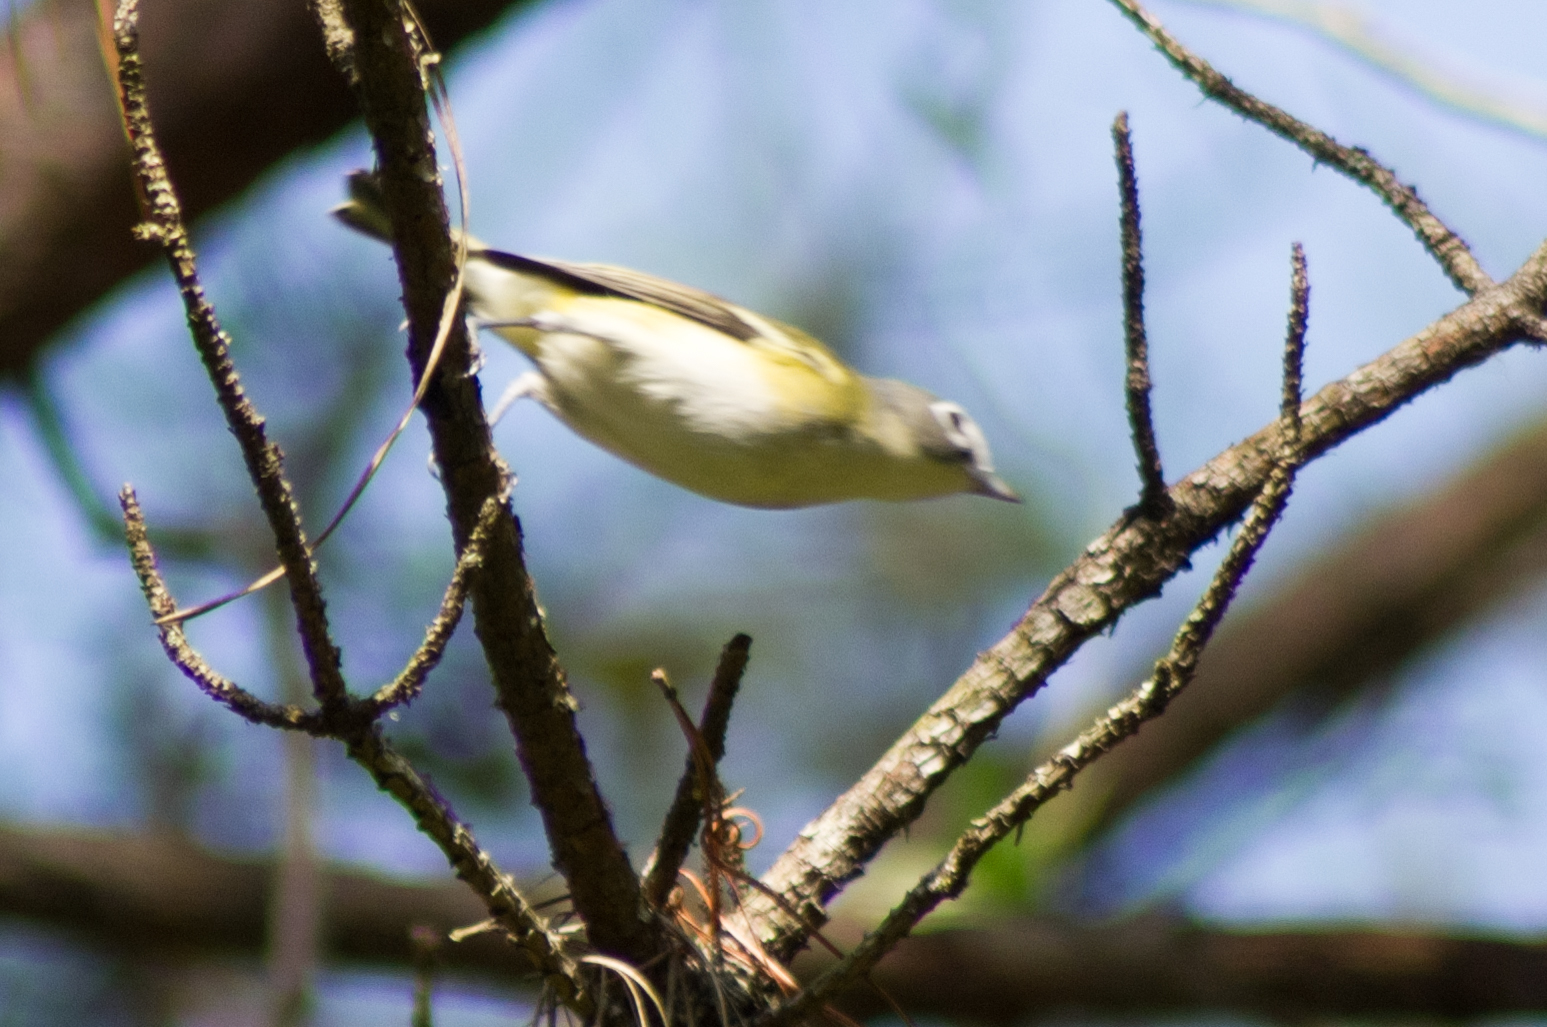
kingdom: Animalia
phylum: Chordata
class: Aves
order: Passeriformes
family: Vireonidae
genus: Vireo
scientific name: Vireo solitarius
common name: Blue-headed vireo
